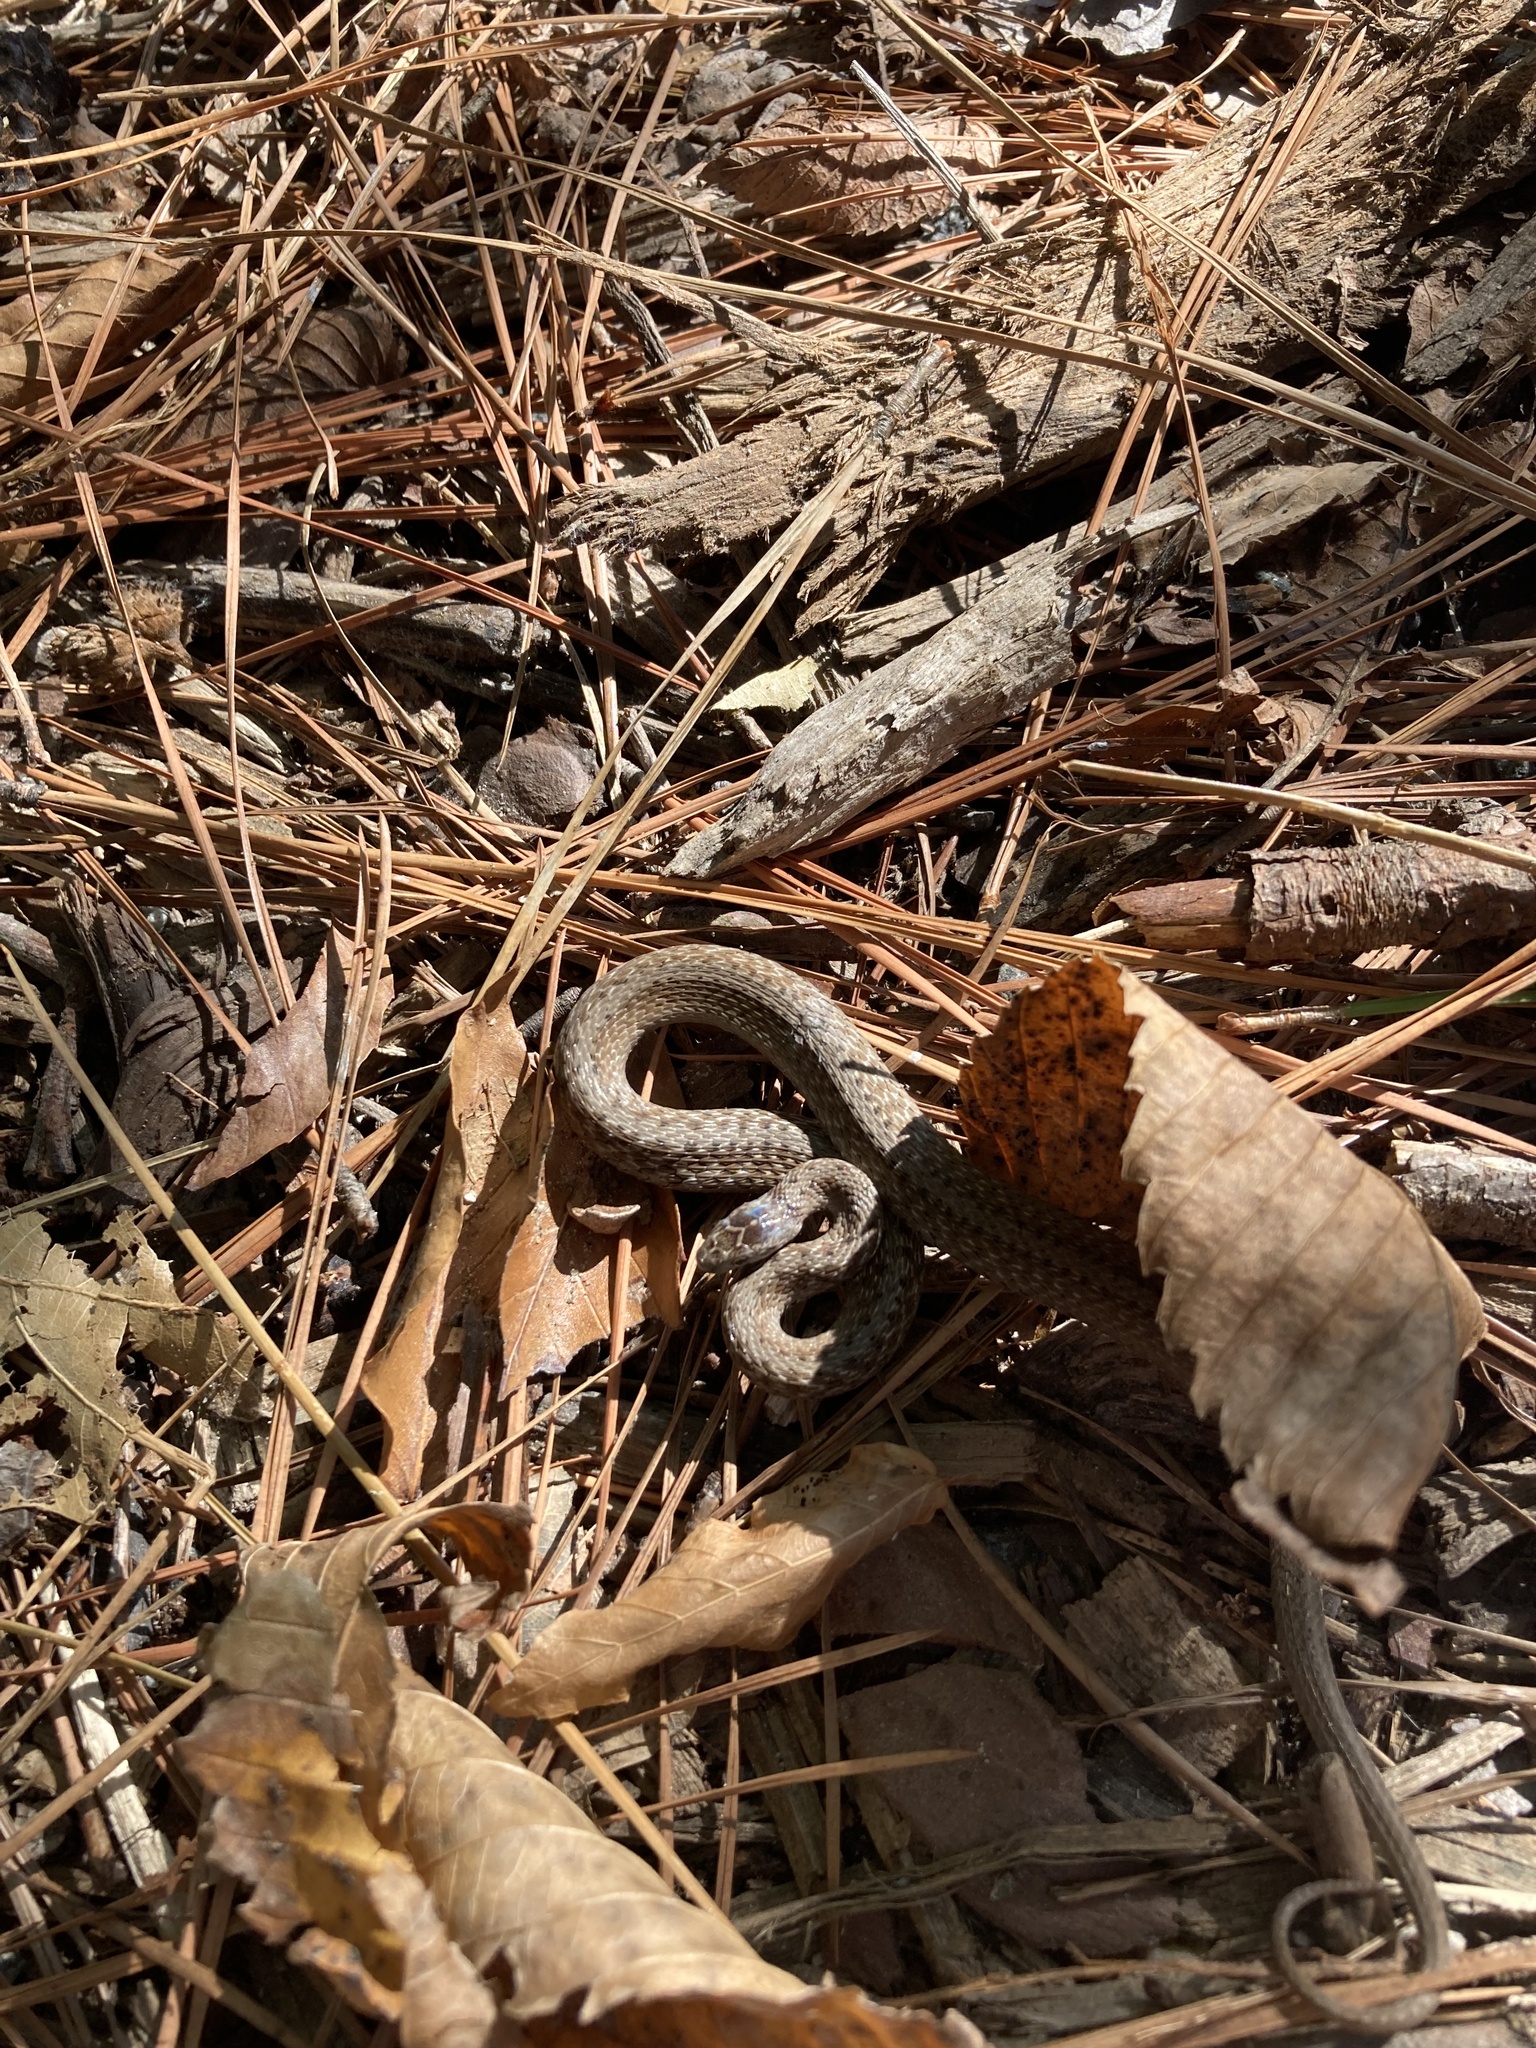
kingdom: Animalia
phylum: Chordata
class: Squamata
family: Colubridae
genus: Storeria
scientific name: Storeria dekayi
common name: (dekay’s) brown snake
